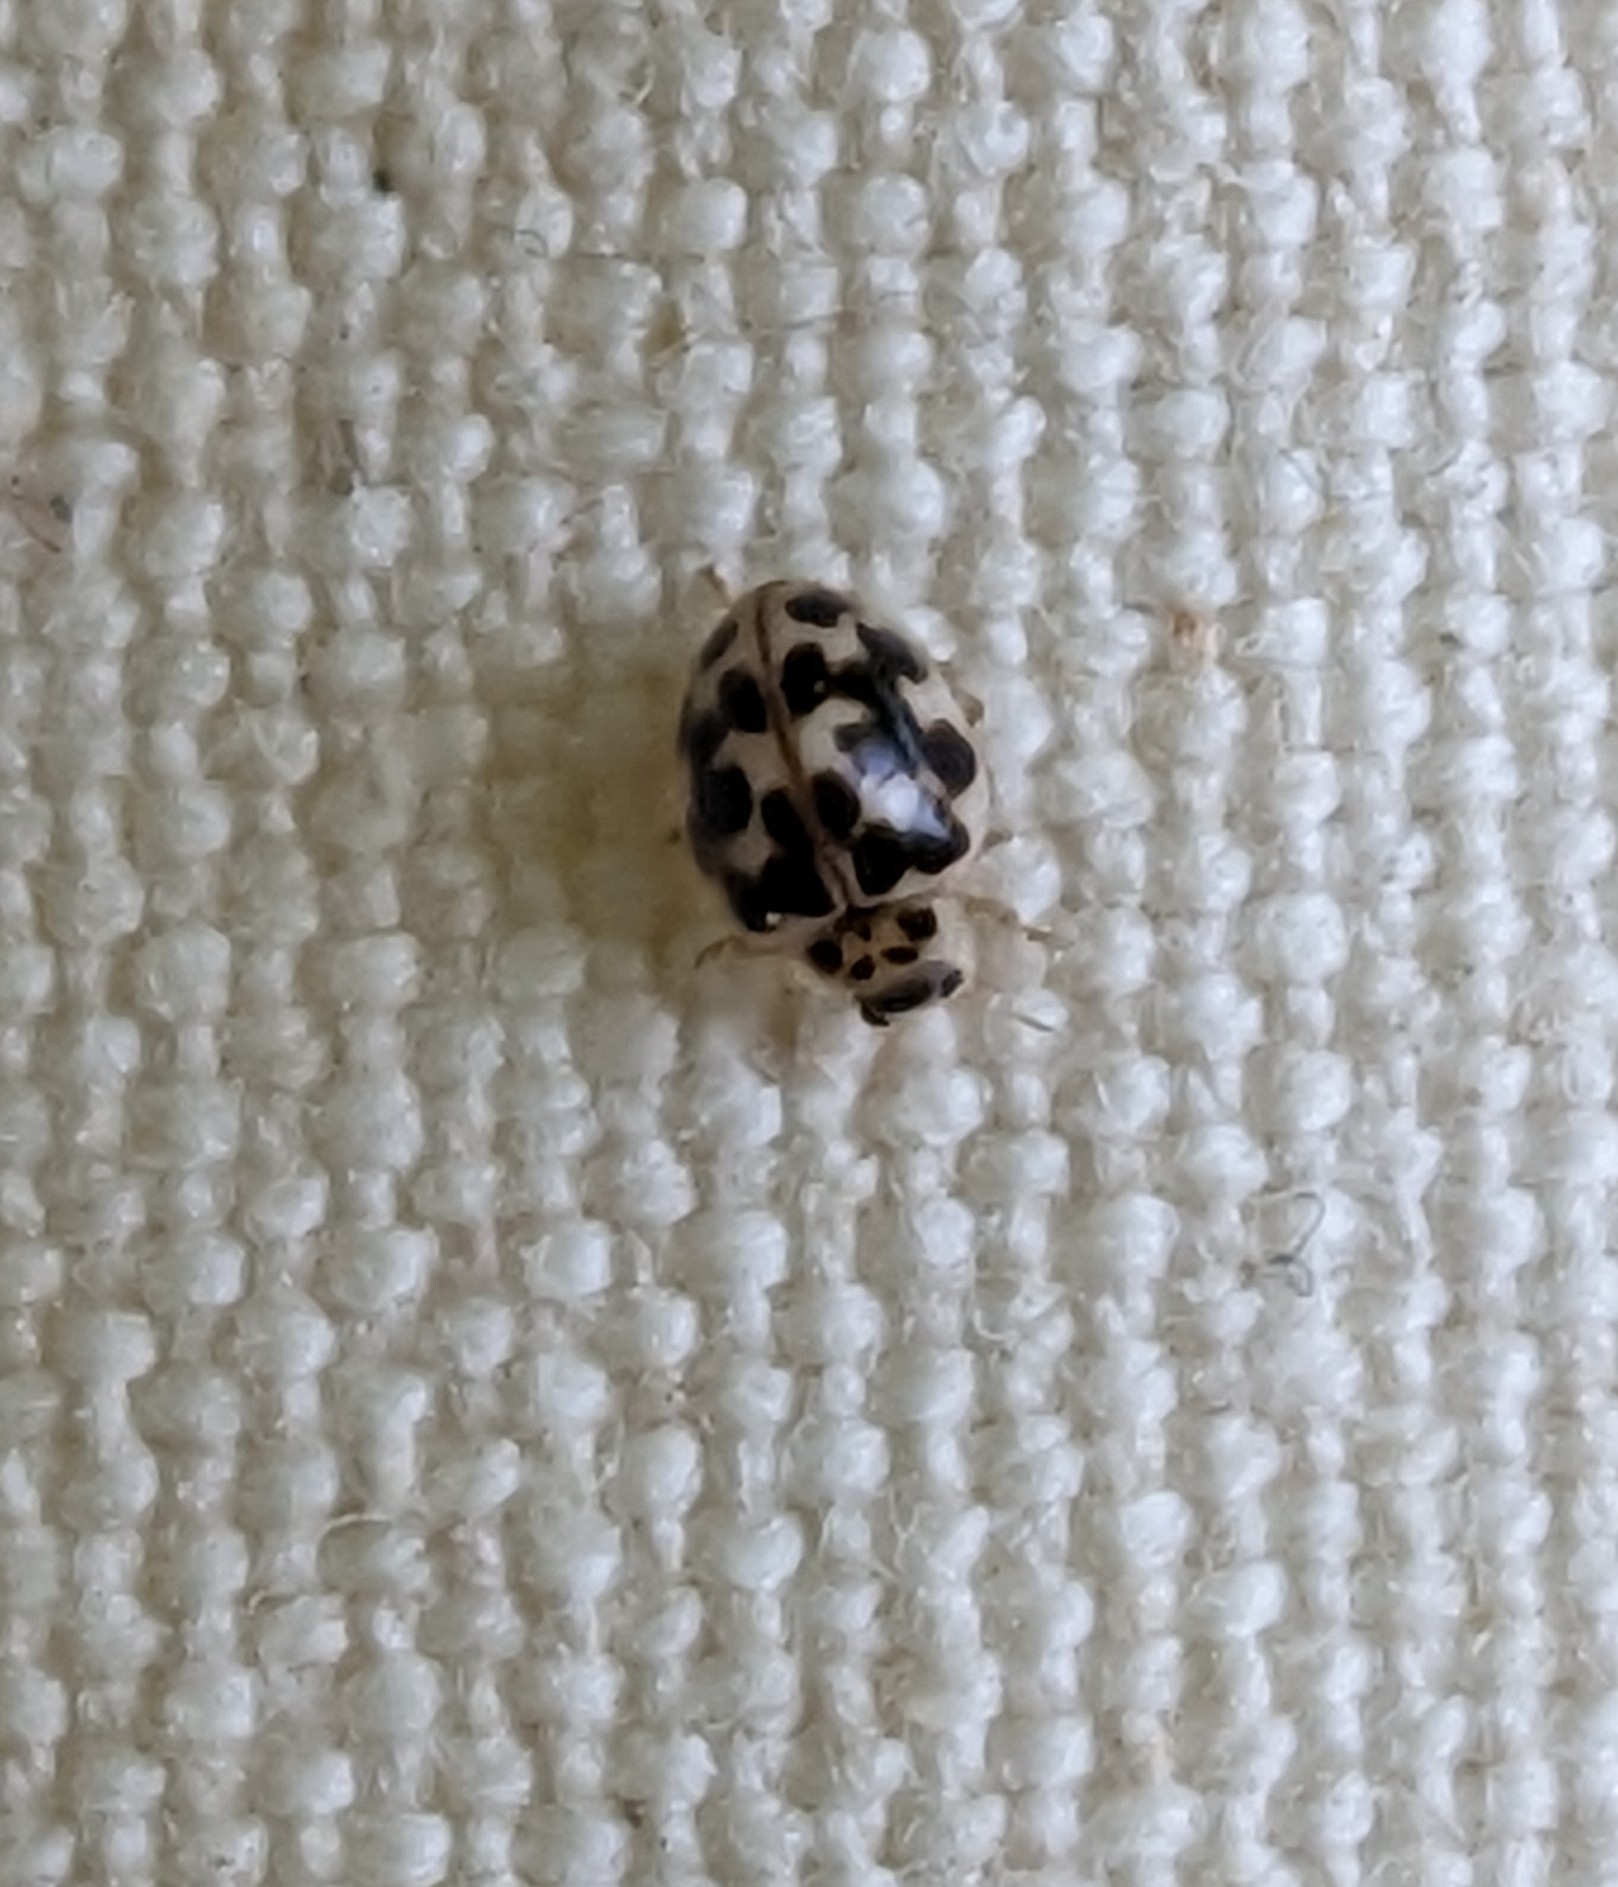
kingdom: Animalia
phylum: Arthropoda
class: Insecta
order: Coleoptera
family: Coccinellidae
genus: Psyllobora
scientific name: Psyllobora vigintimaculata
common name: Ladybird beetle
